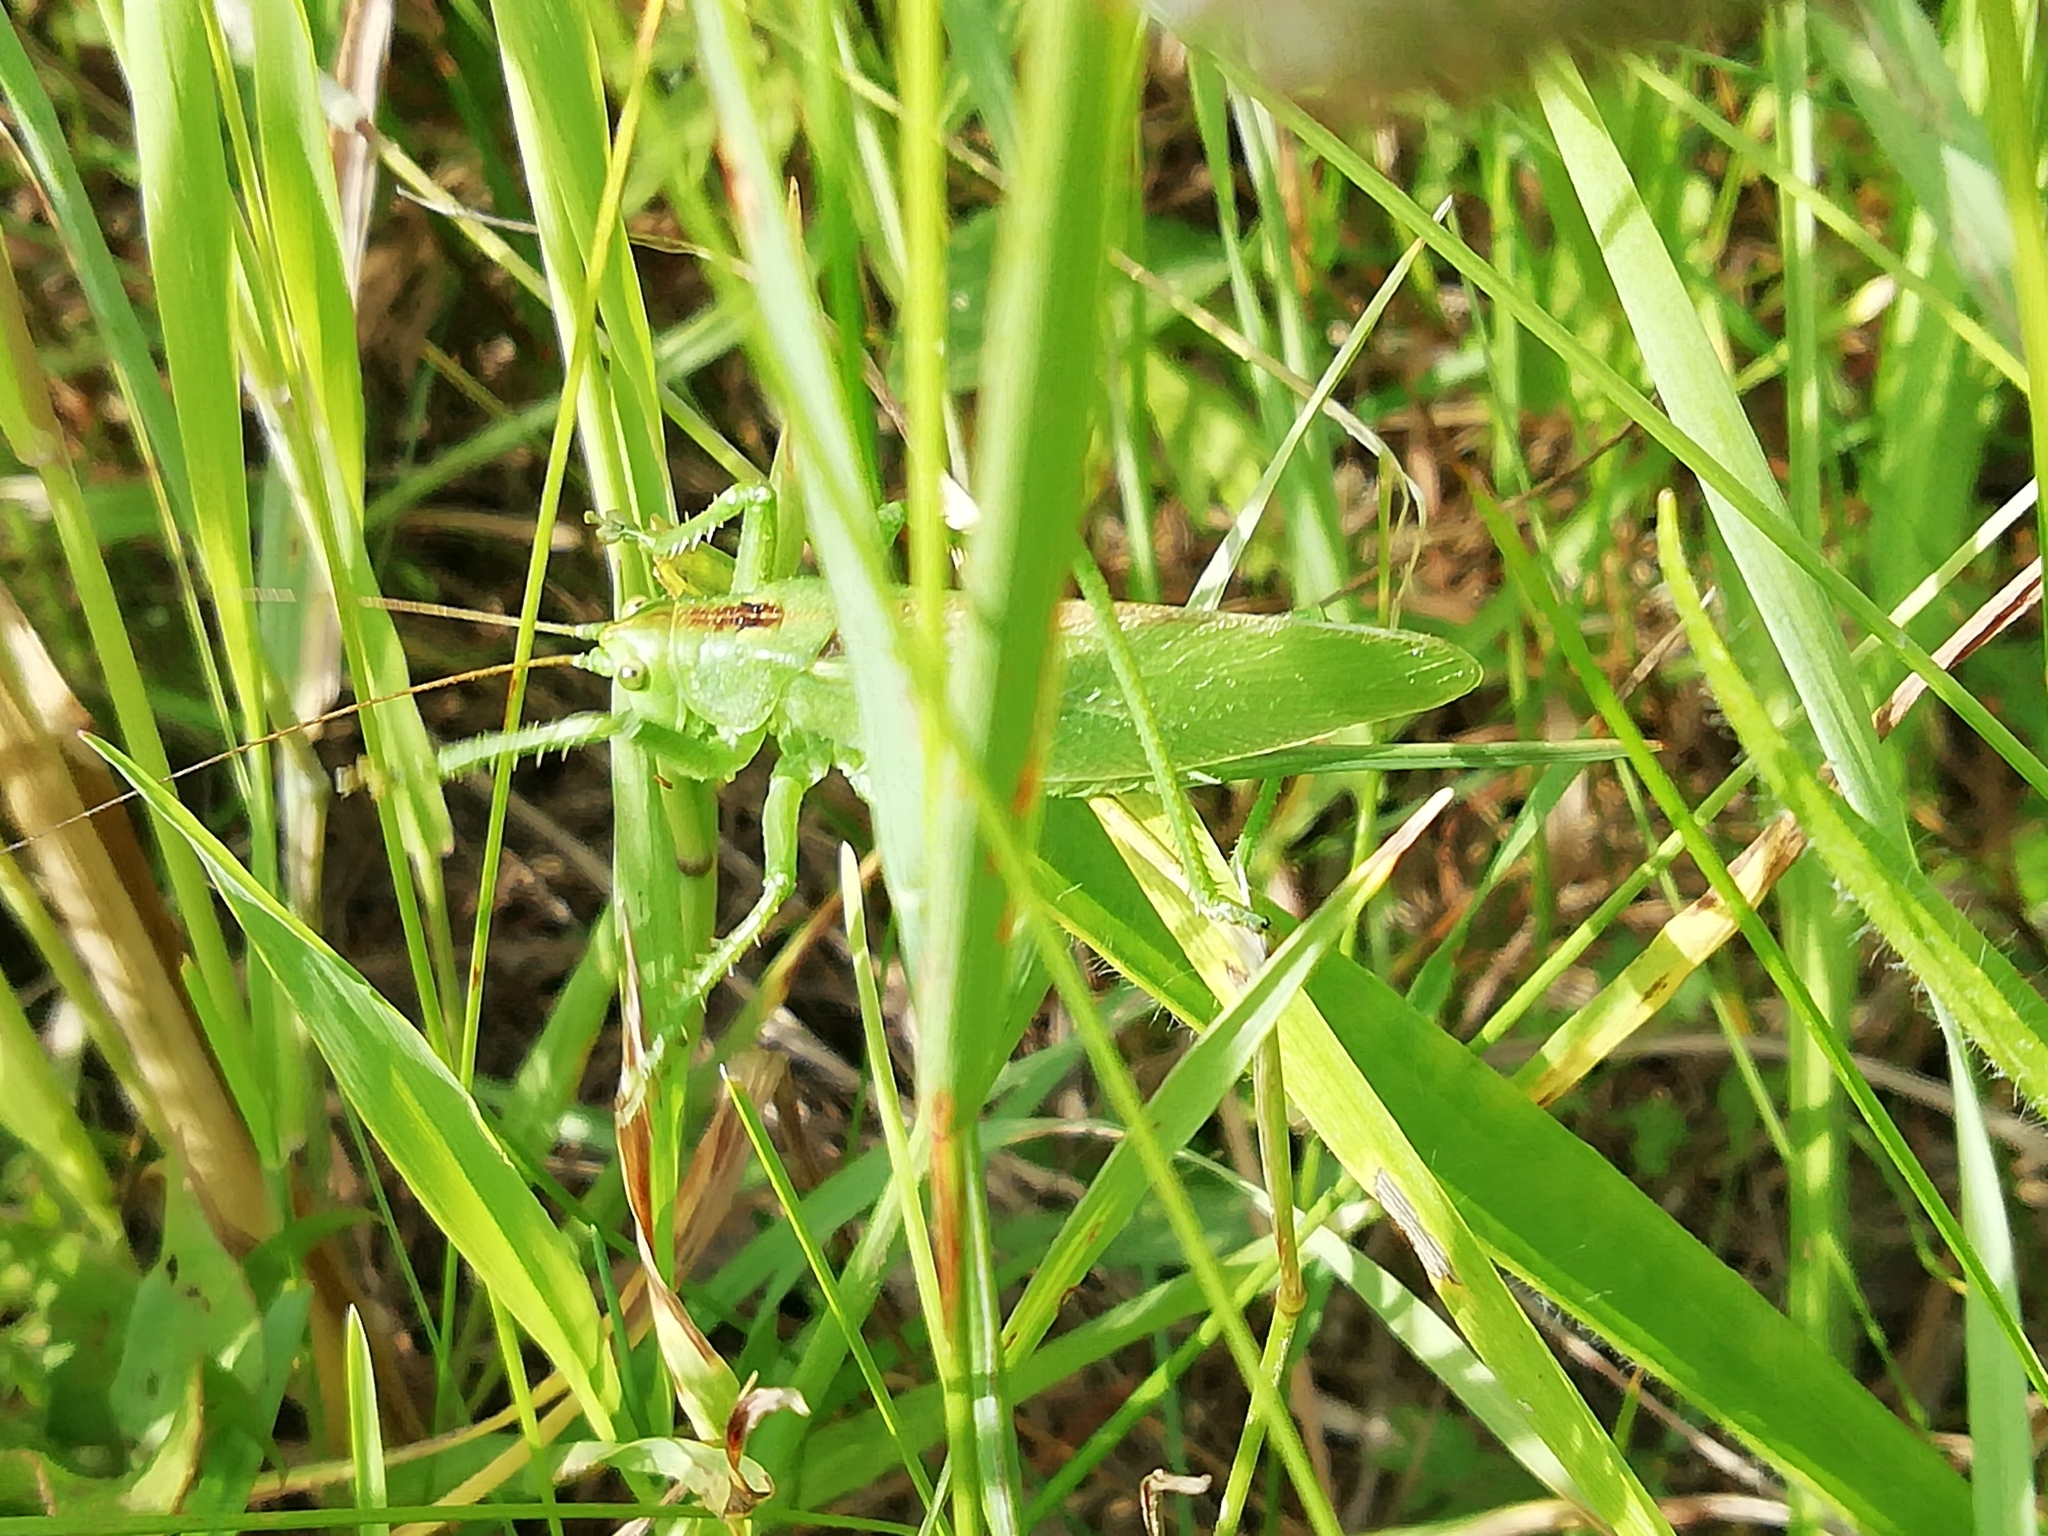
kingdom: Animalia
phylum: Arthropoda
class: Insecta
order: Orthoptera
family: Tettigoniidae
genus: Tettigonia
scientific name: Tettigonia cantans
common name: Upland green bush-cricket
